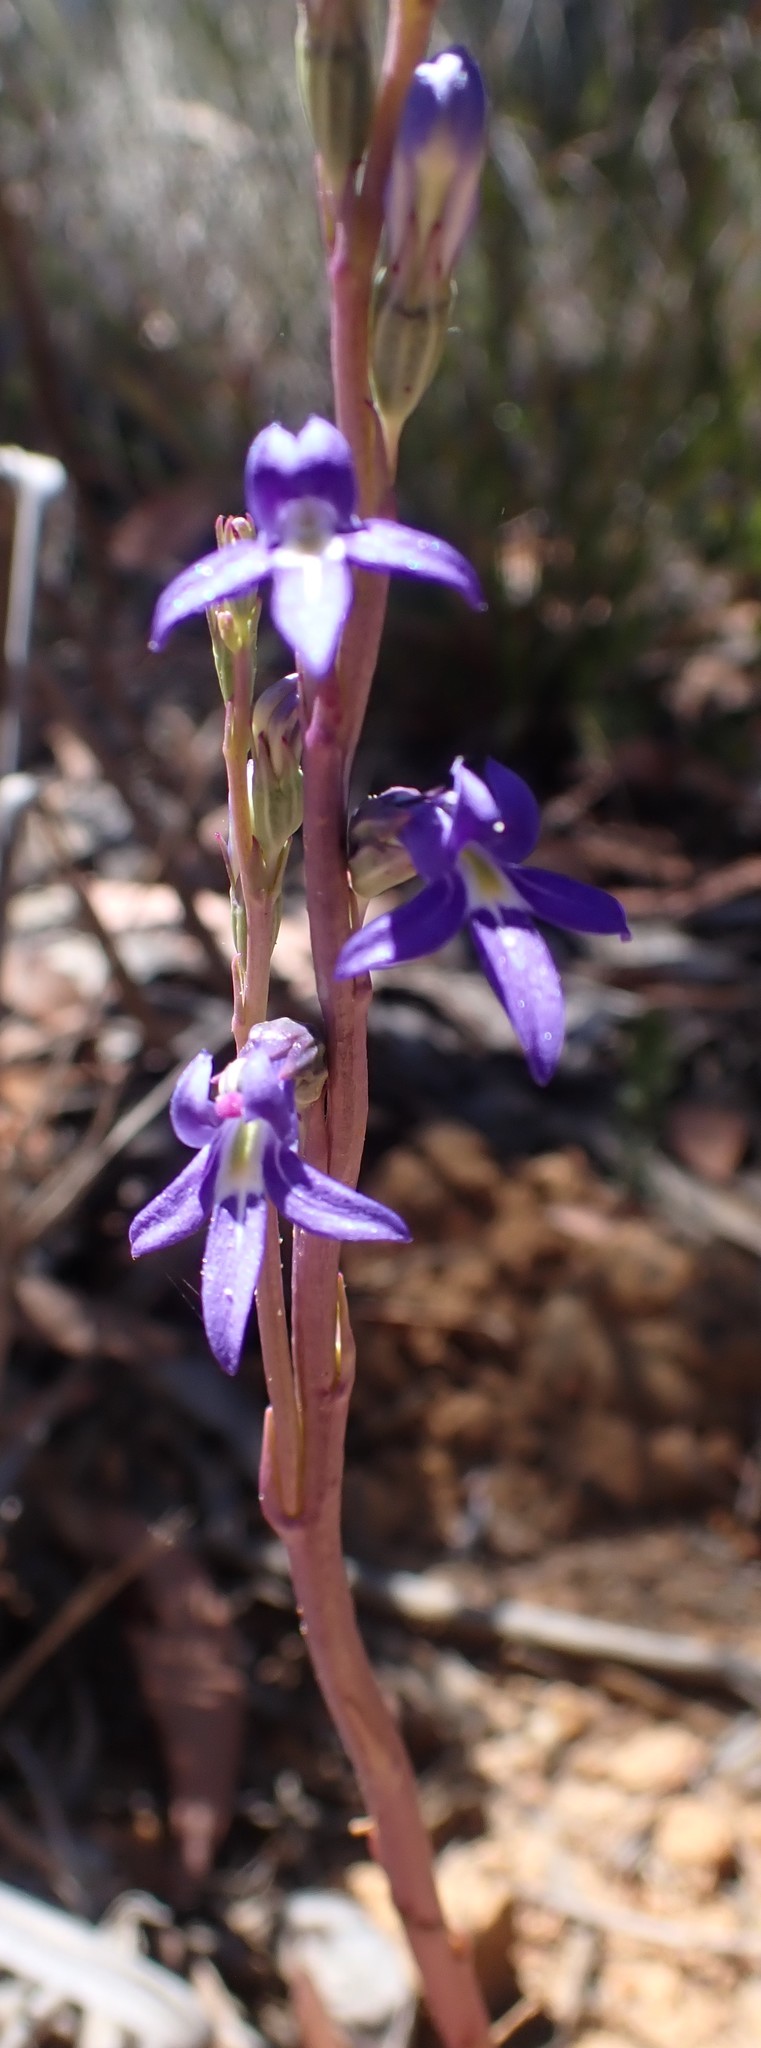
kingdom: Plantae
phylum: Tracheophyta
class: Magnoliopsida
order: Asterales
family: Campanulaceae
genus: Lobelia
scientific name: Lobelia gibbosa
